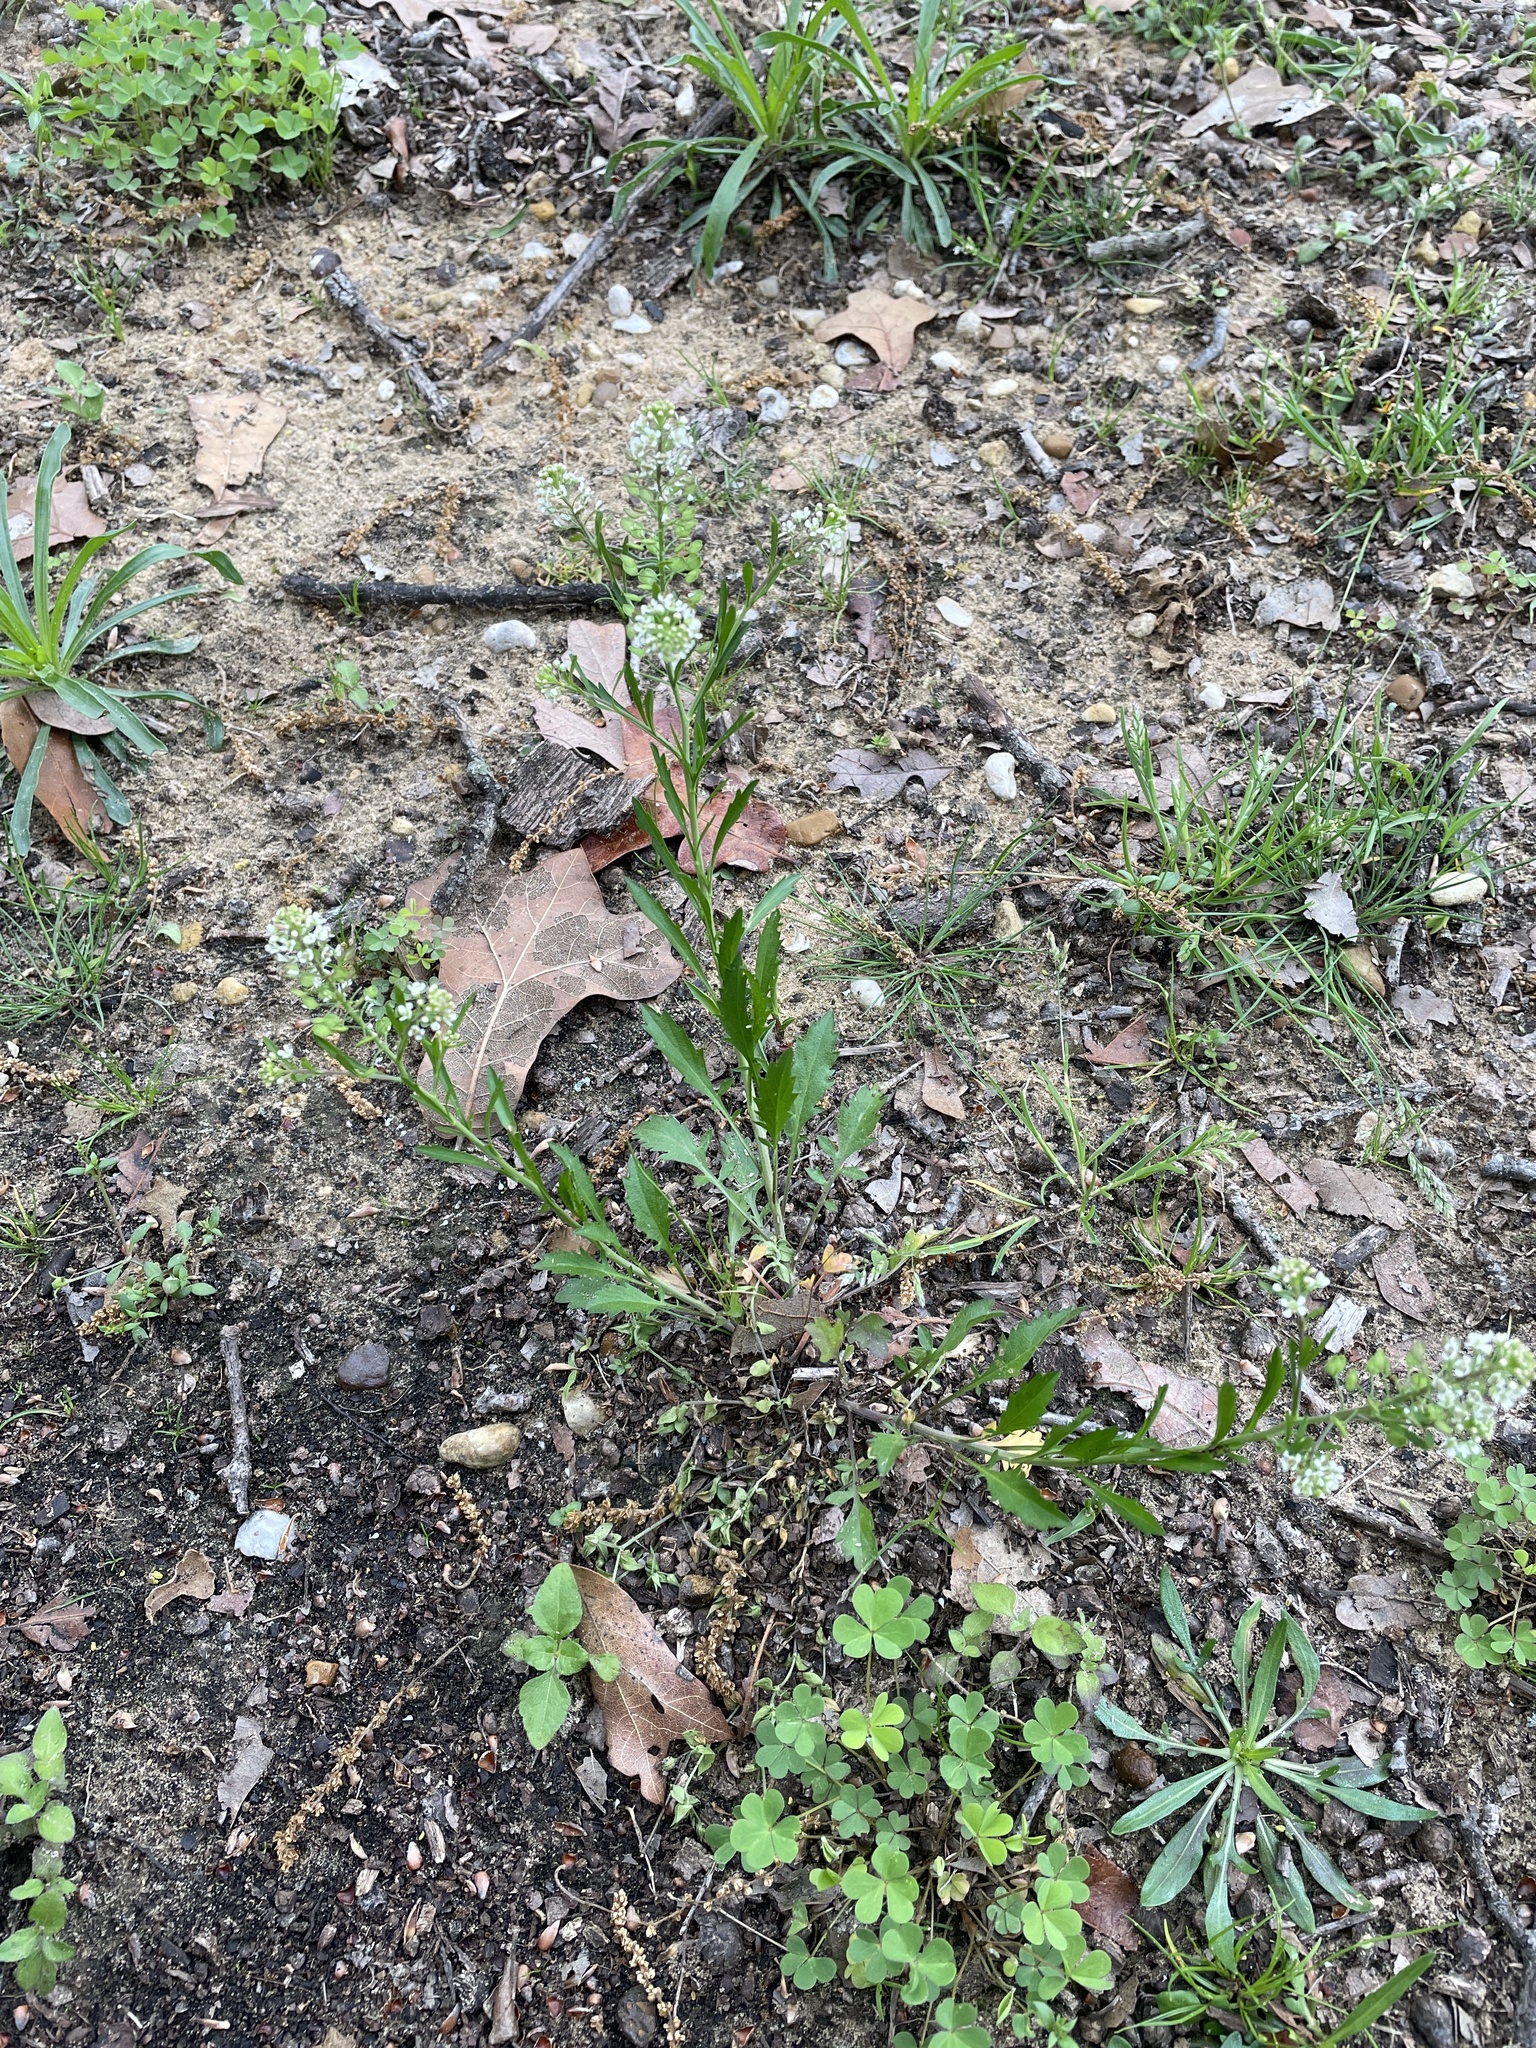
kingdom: Plantae
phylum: Tracheophyta
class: Magnoliopsida
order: Brassicales
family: Brassicaceae
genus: Lepidium
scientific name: Lepidium virginicum
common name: Least pepperwort
